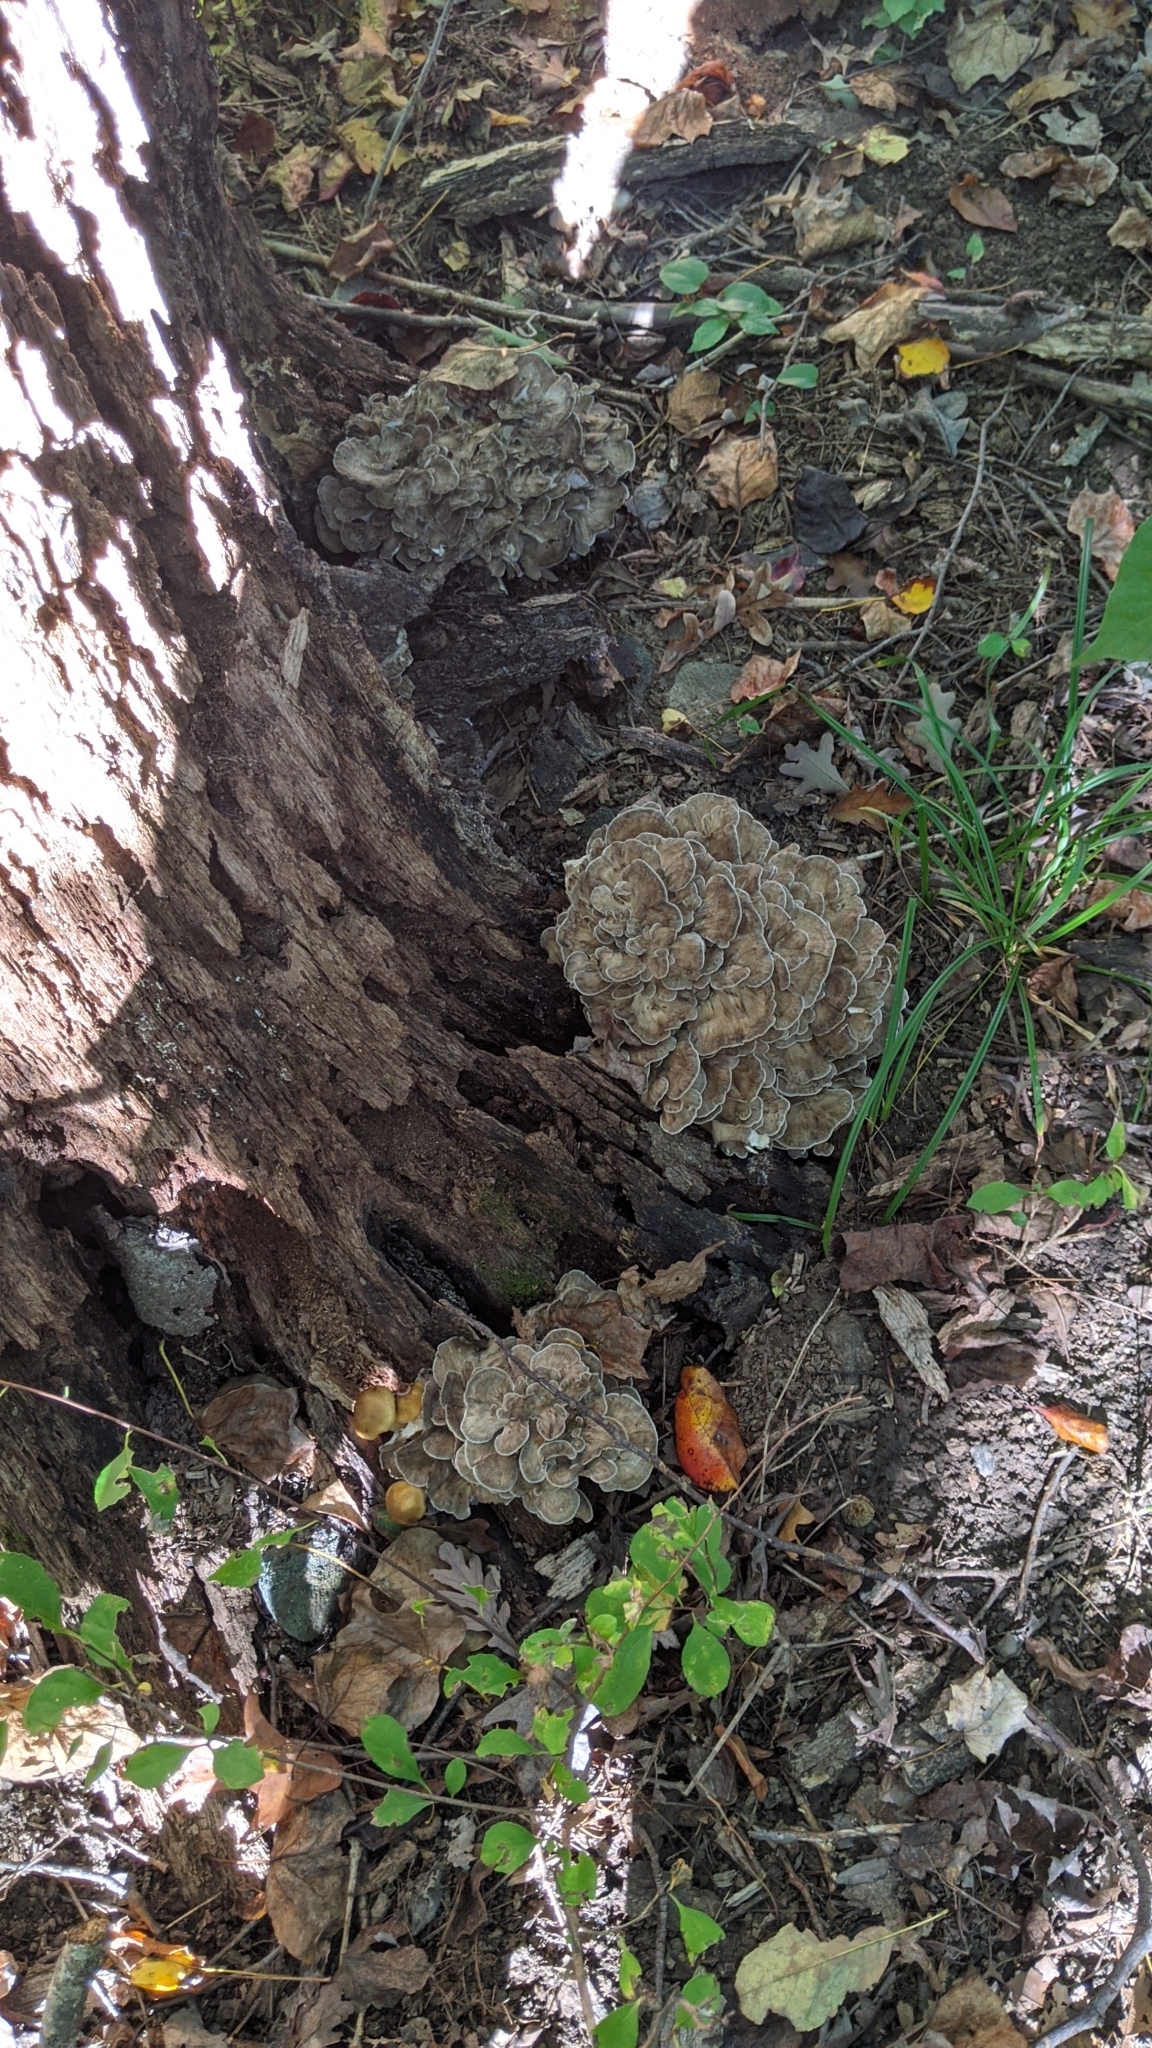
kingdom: Fungi
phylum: Basidiomycota
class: Agaricomycetes
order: Polyporales
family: Grifolaceae
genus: Grifola
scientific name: Grifola frondosa
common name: Hen of the woods
